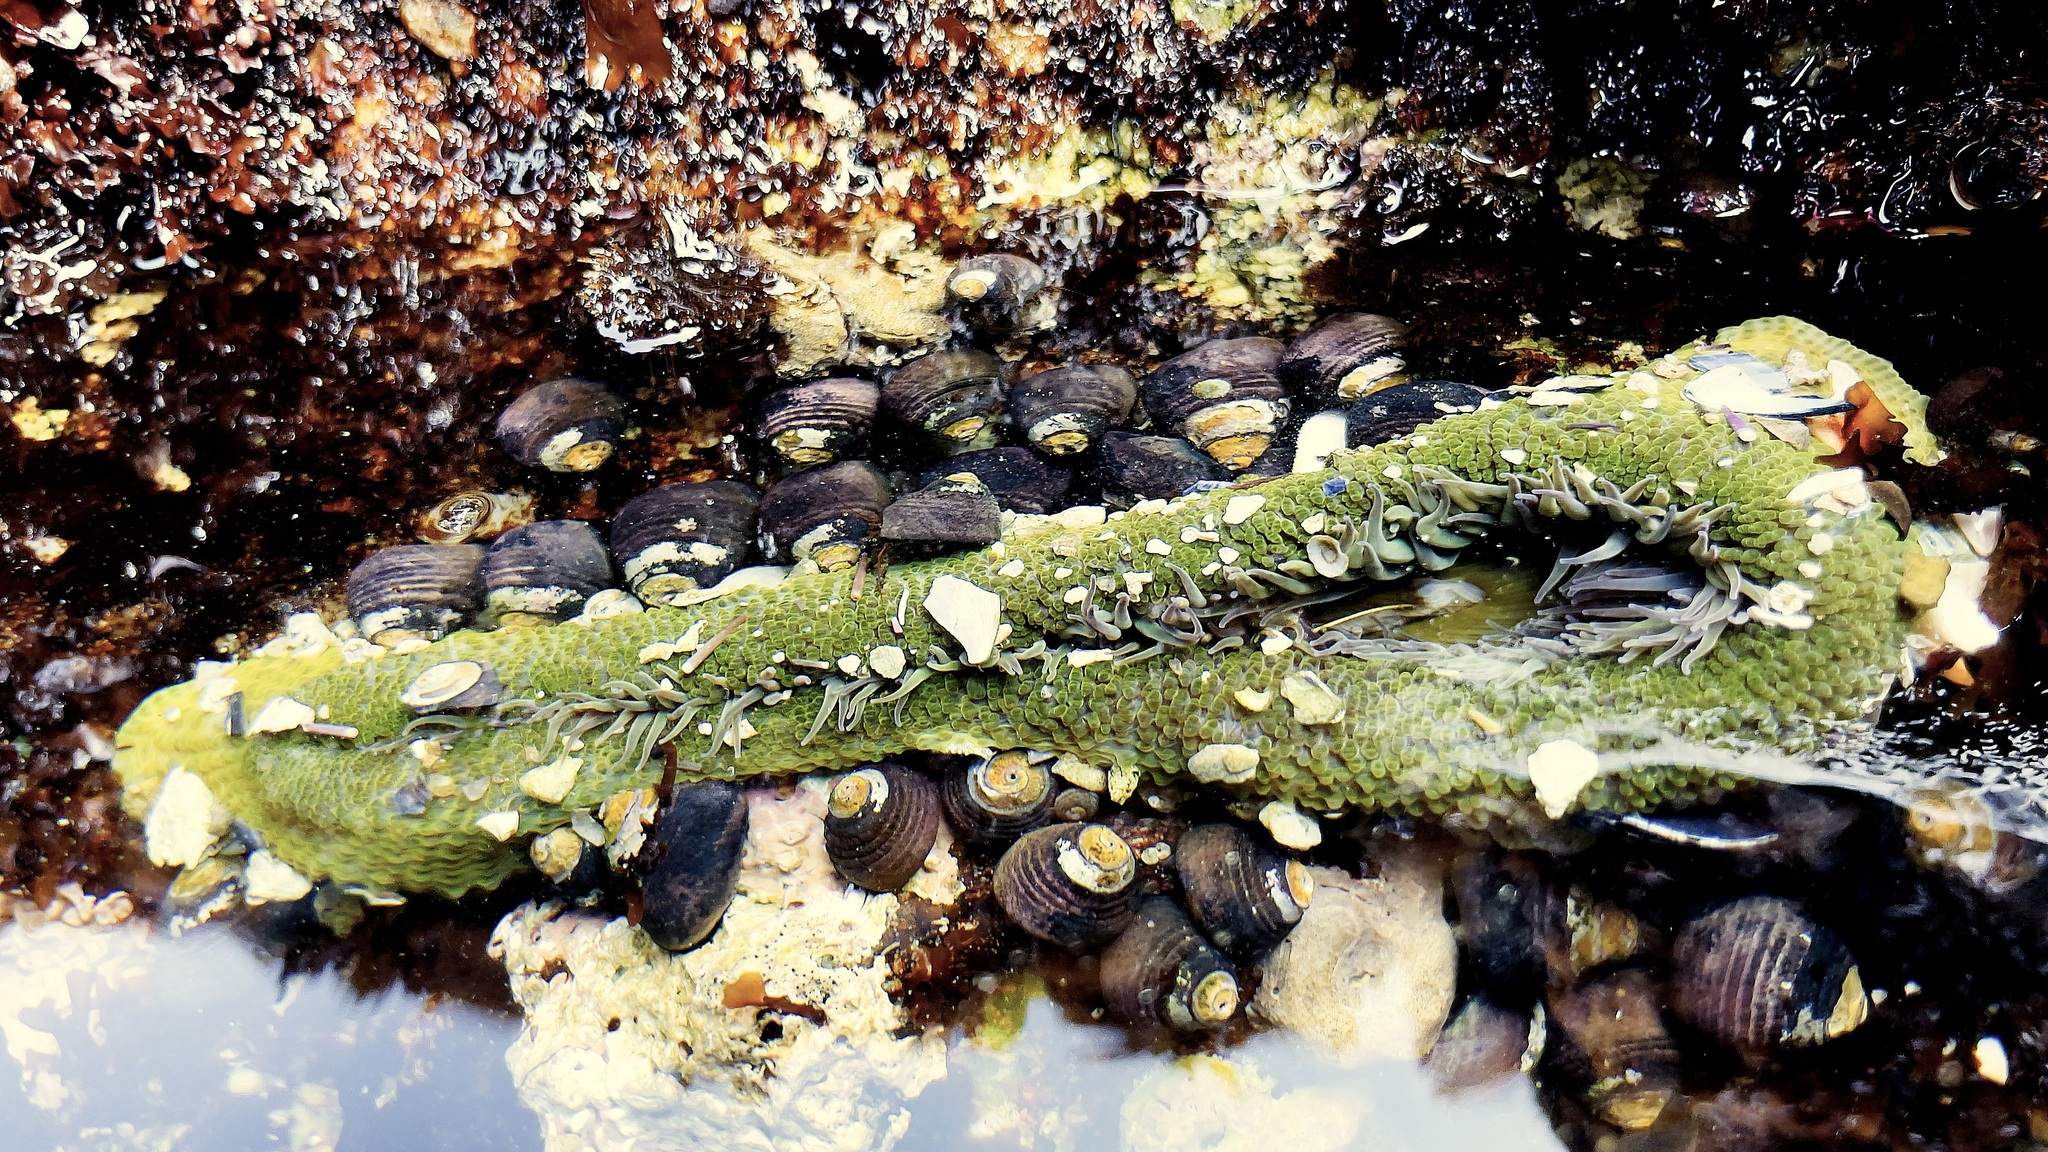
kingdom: Animalia
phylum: Cnidaria
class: Anthozoa
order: Actiniaria
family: Actiniidae
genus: Anthopleura
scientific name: Anthopleura elegantissima
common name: Clonal anemone
